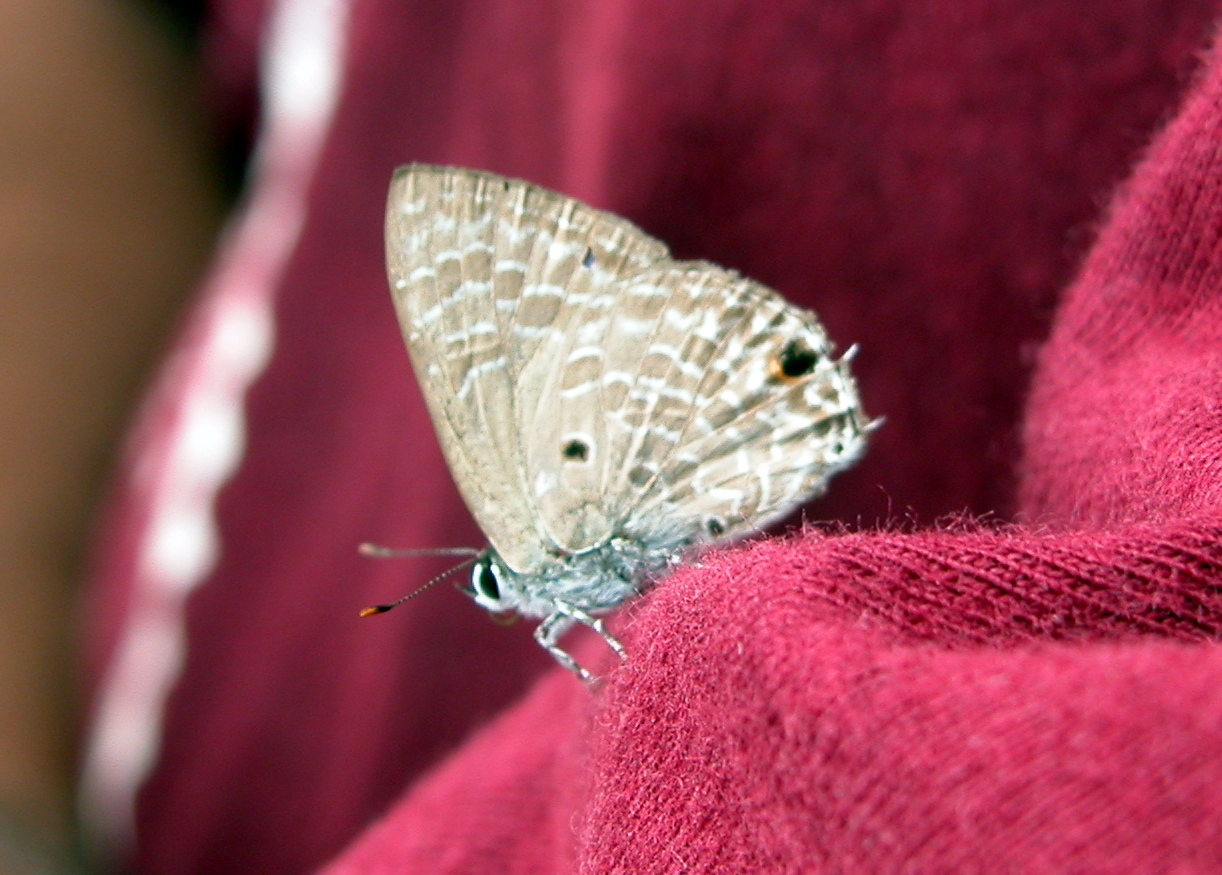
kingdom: Animalia
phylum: Arthropoda
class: Insecta
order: Lepidoptera
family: Lycaenidae
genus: Anthene
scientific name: Anthene lycaenina
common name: Pointed ciliate blue
